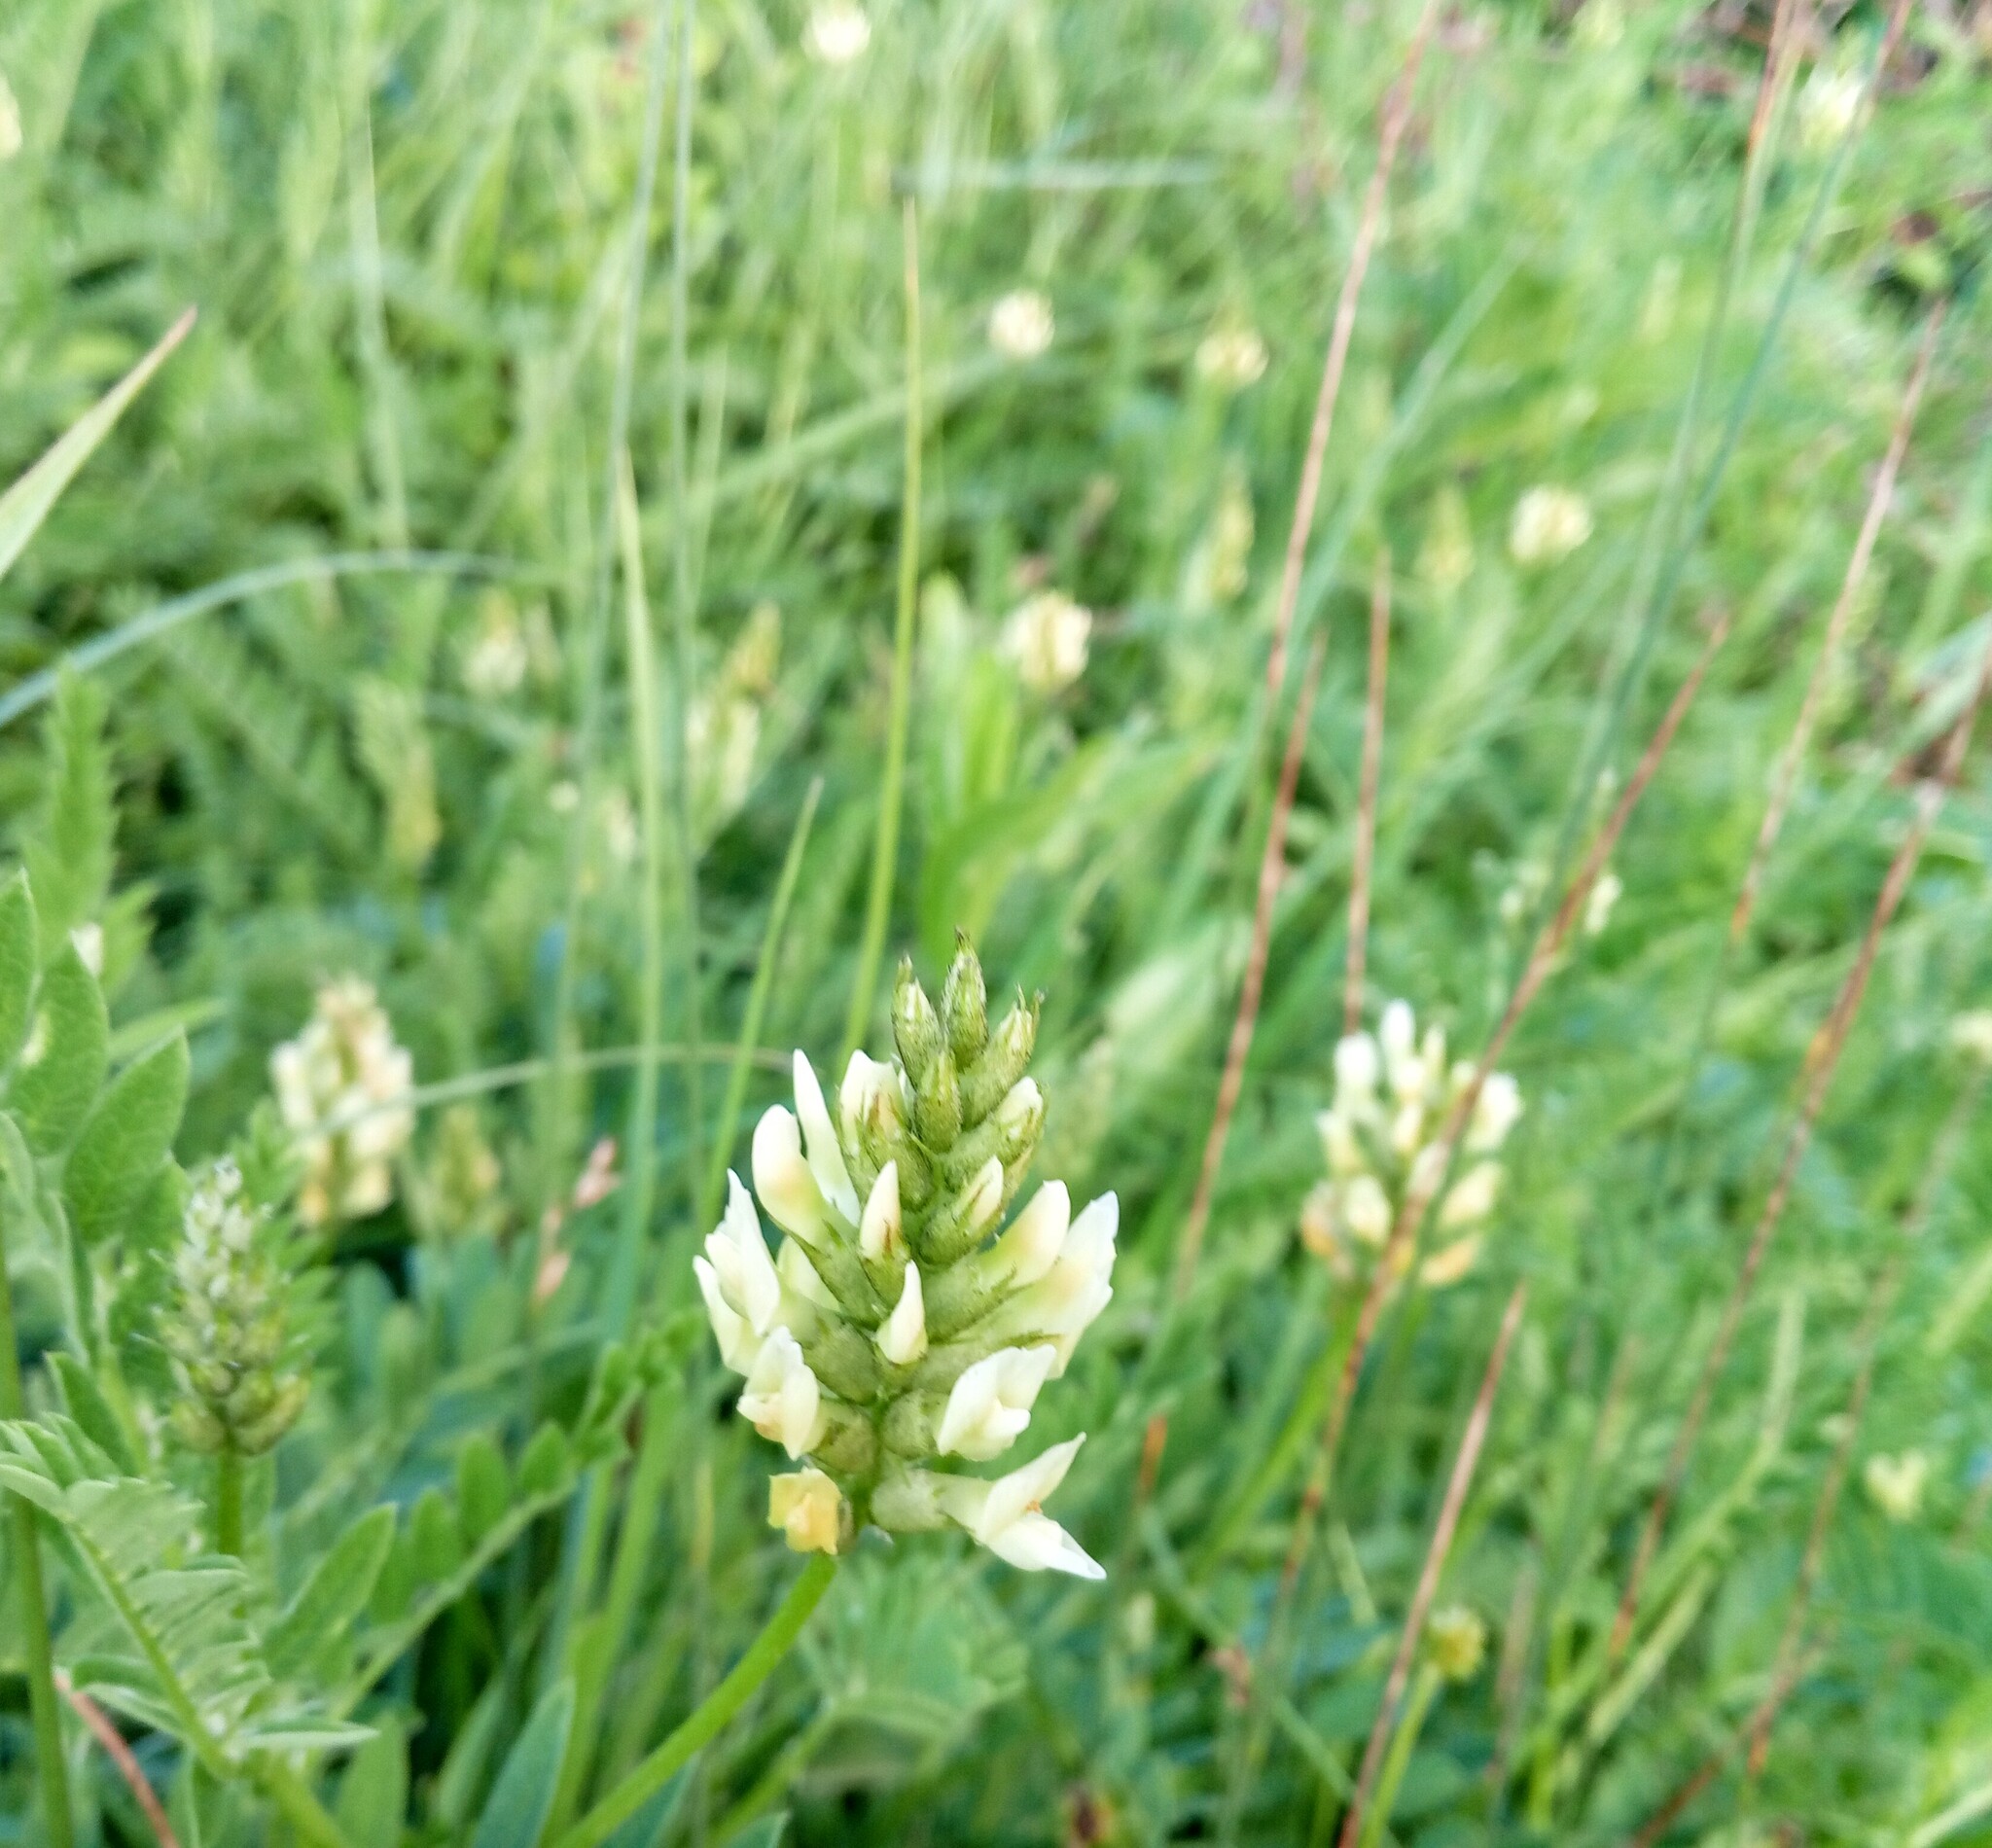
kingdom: Plantae
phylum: Tracheophyta
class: Magnoliopsida
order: Fabales
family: Fabaceae
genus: Astragalus
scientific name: Astragalus cicer
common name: Chick-pea milk-vetch
